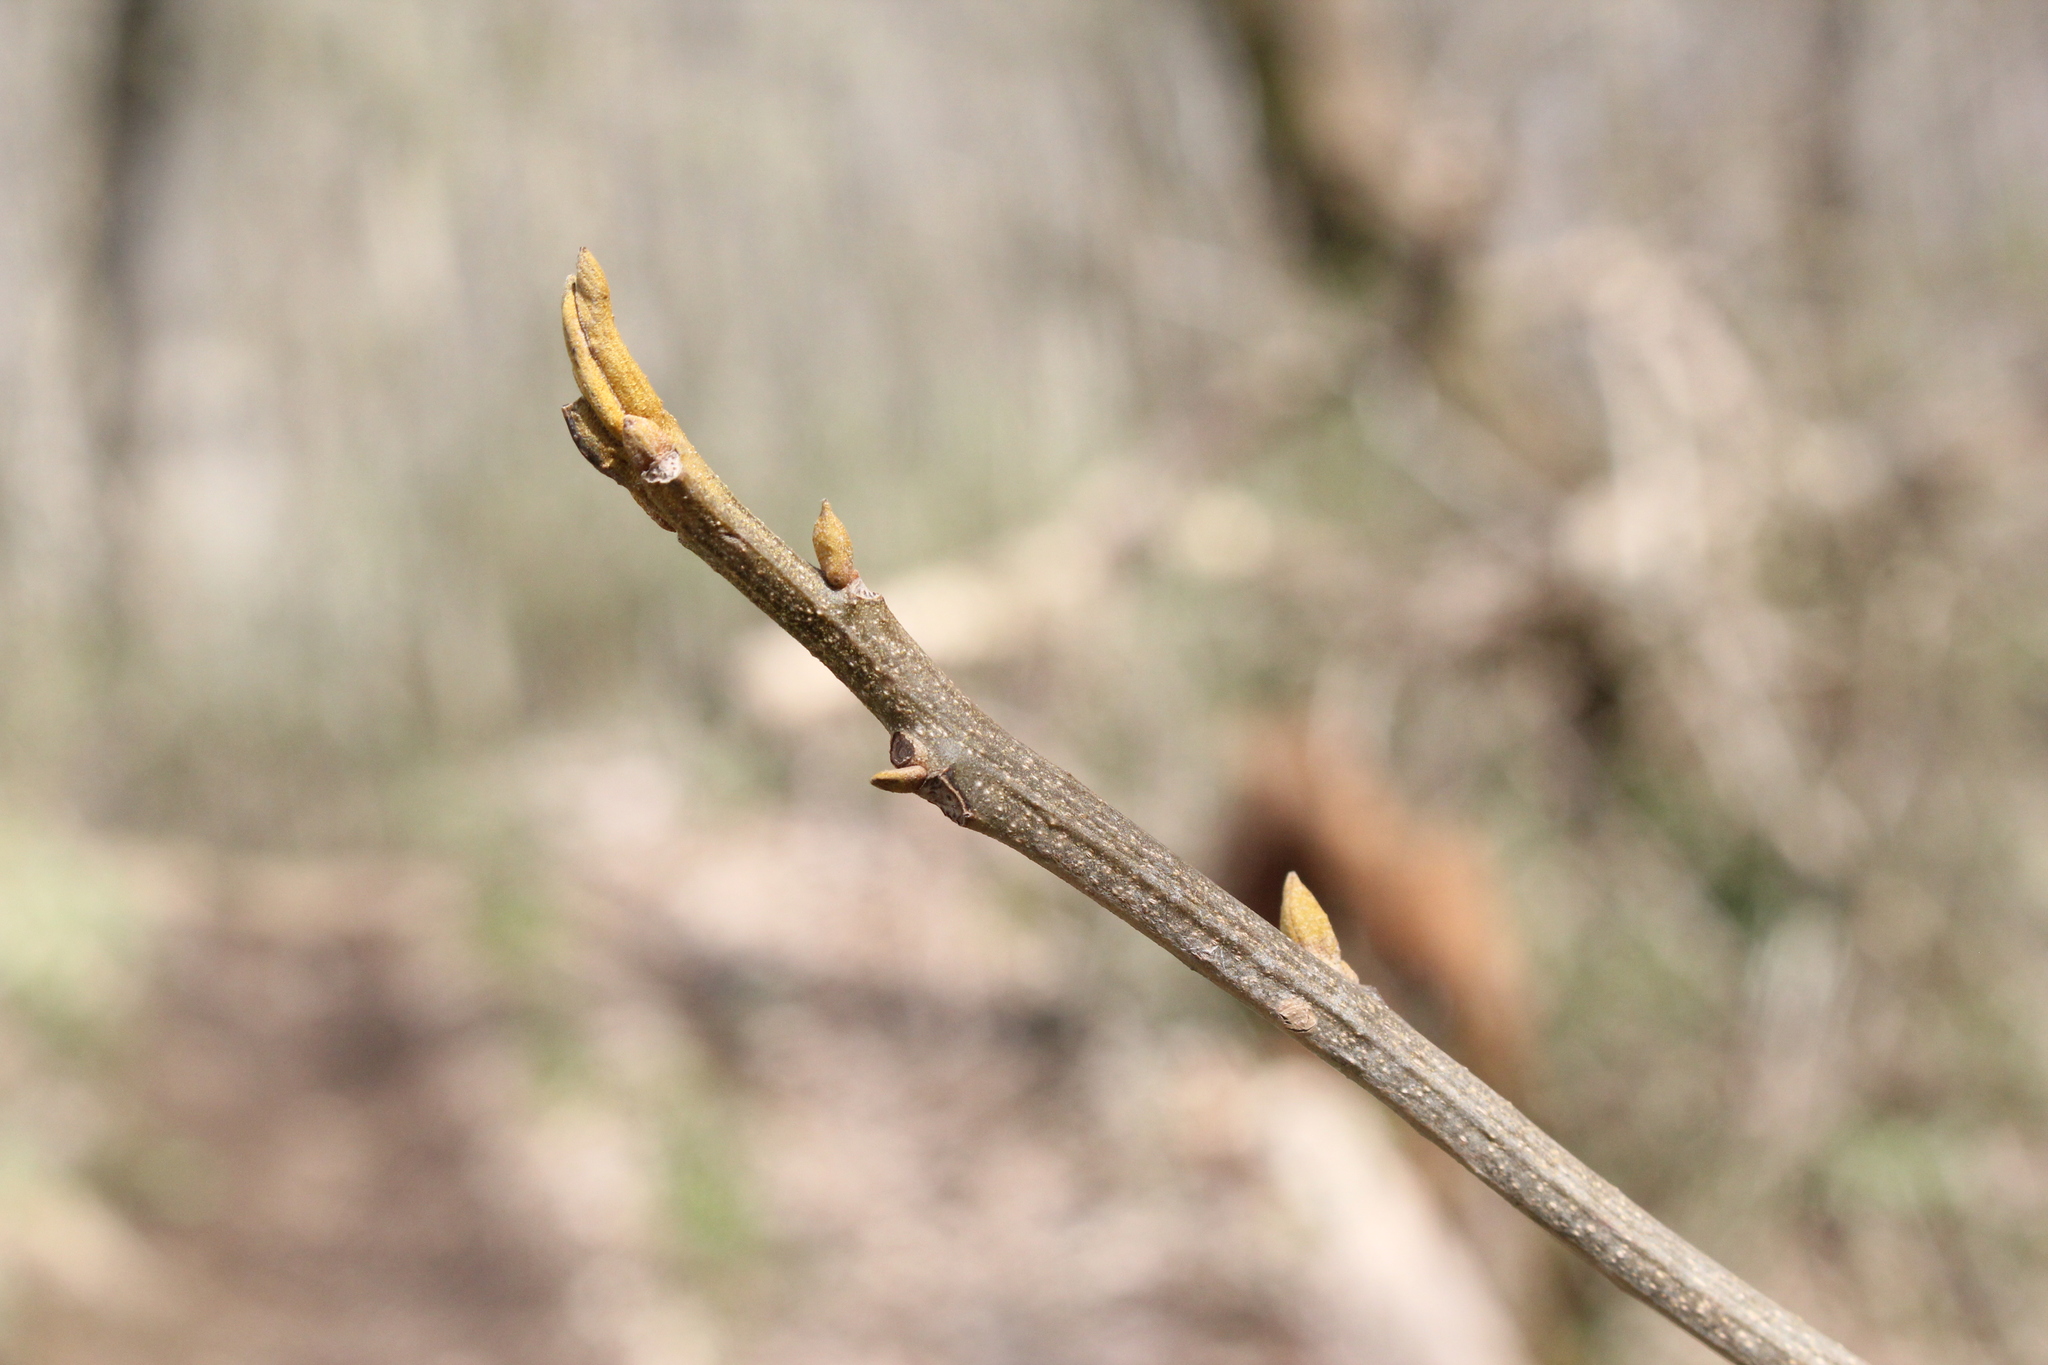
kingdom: Plantae
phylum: Tracheophyta
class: Magnoliopsida
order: Fagales
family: Juglandaceae
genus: Carya
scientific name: Carya cordiformis
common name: Bitternut hickory
